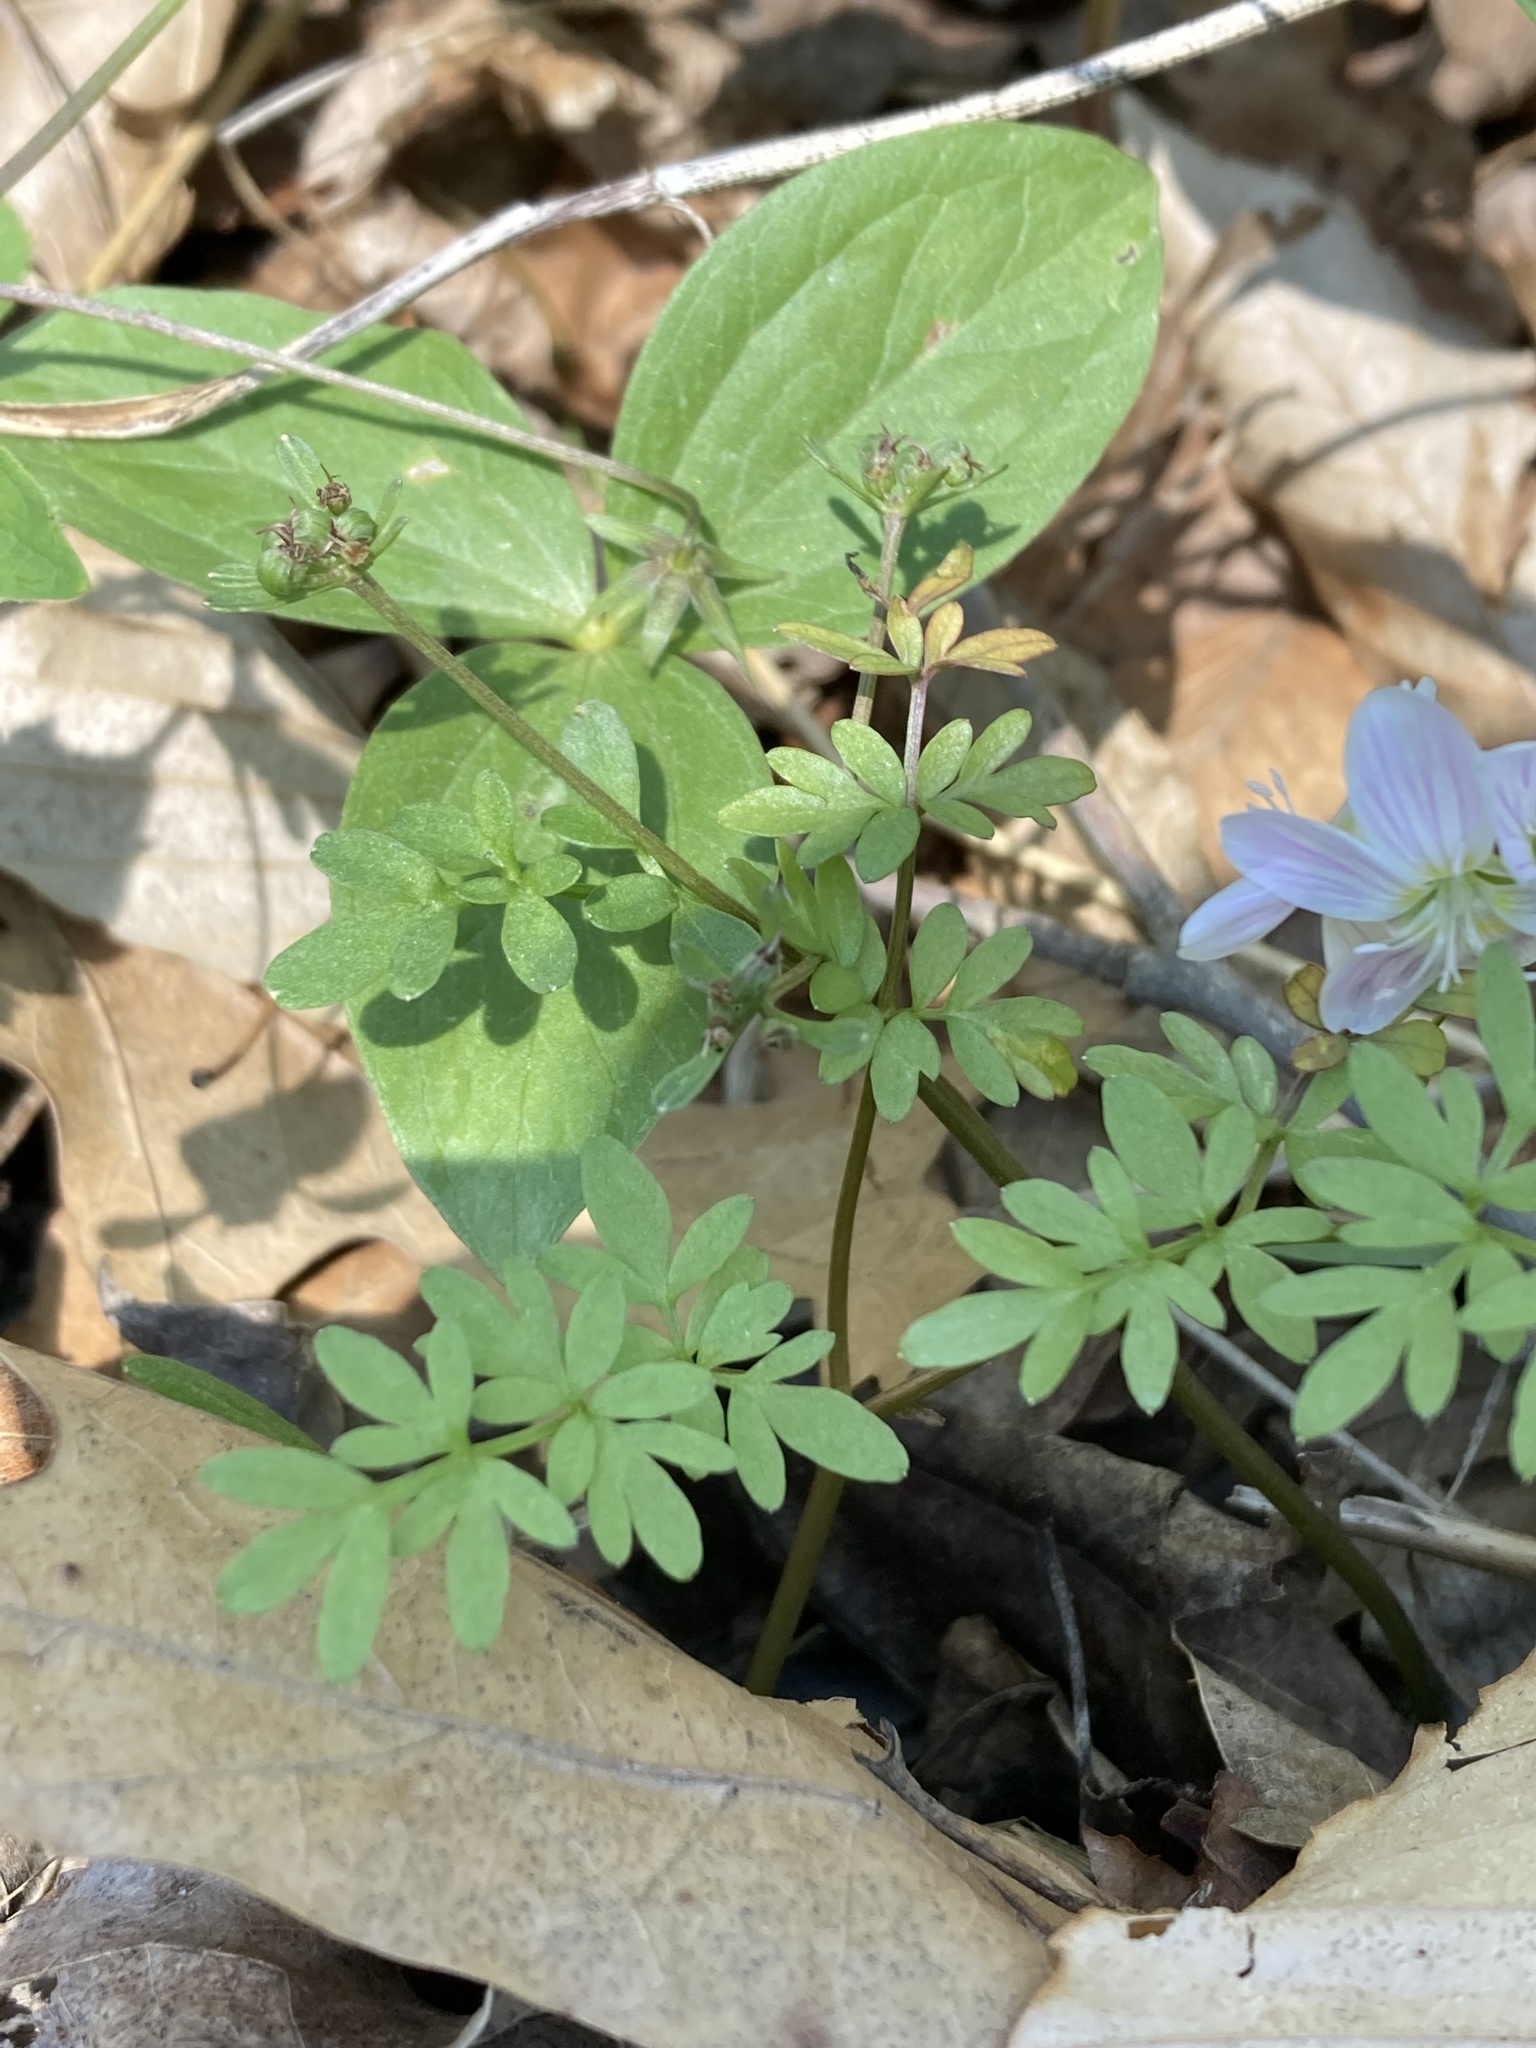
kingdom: Plantae
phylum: Tracheophyta
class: Magnoliopsida
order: Apiales
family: Apiaceae
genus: Erigenia
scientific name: Erigenia bulbosa
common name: Pepper-and-salt
